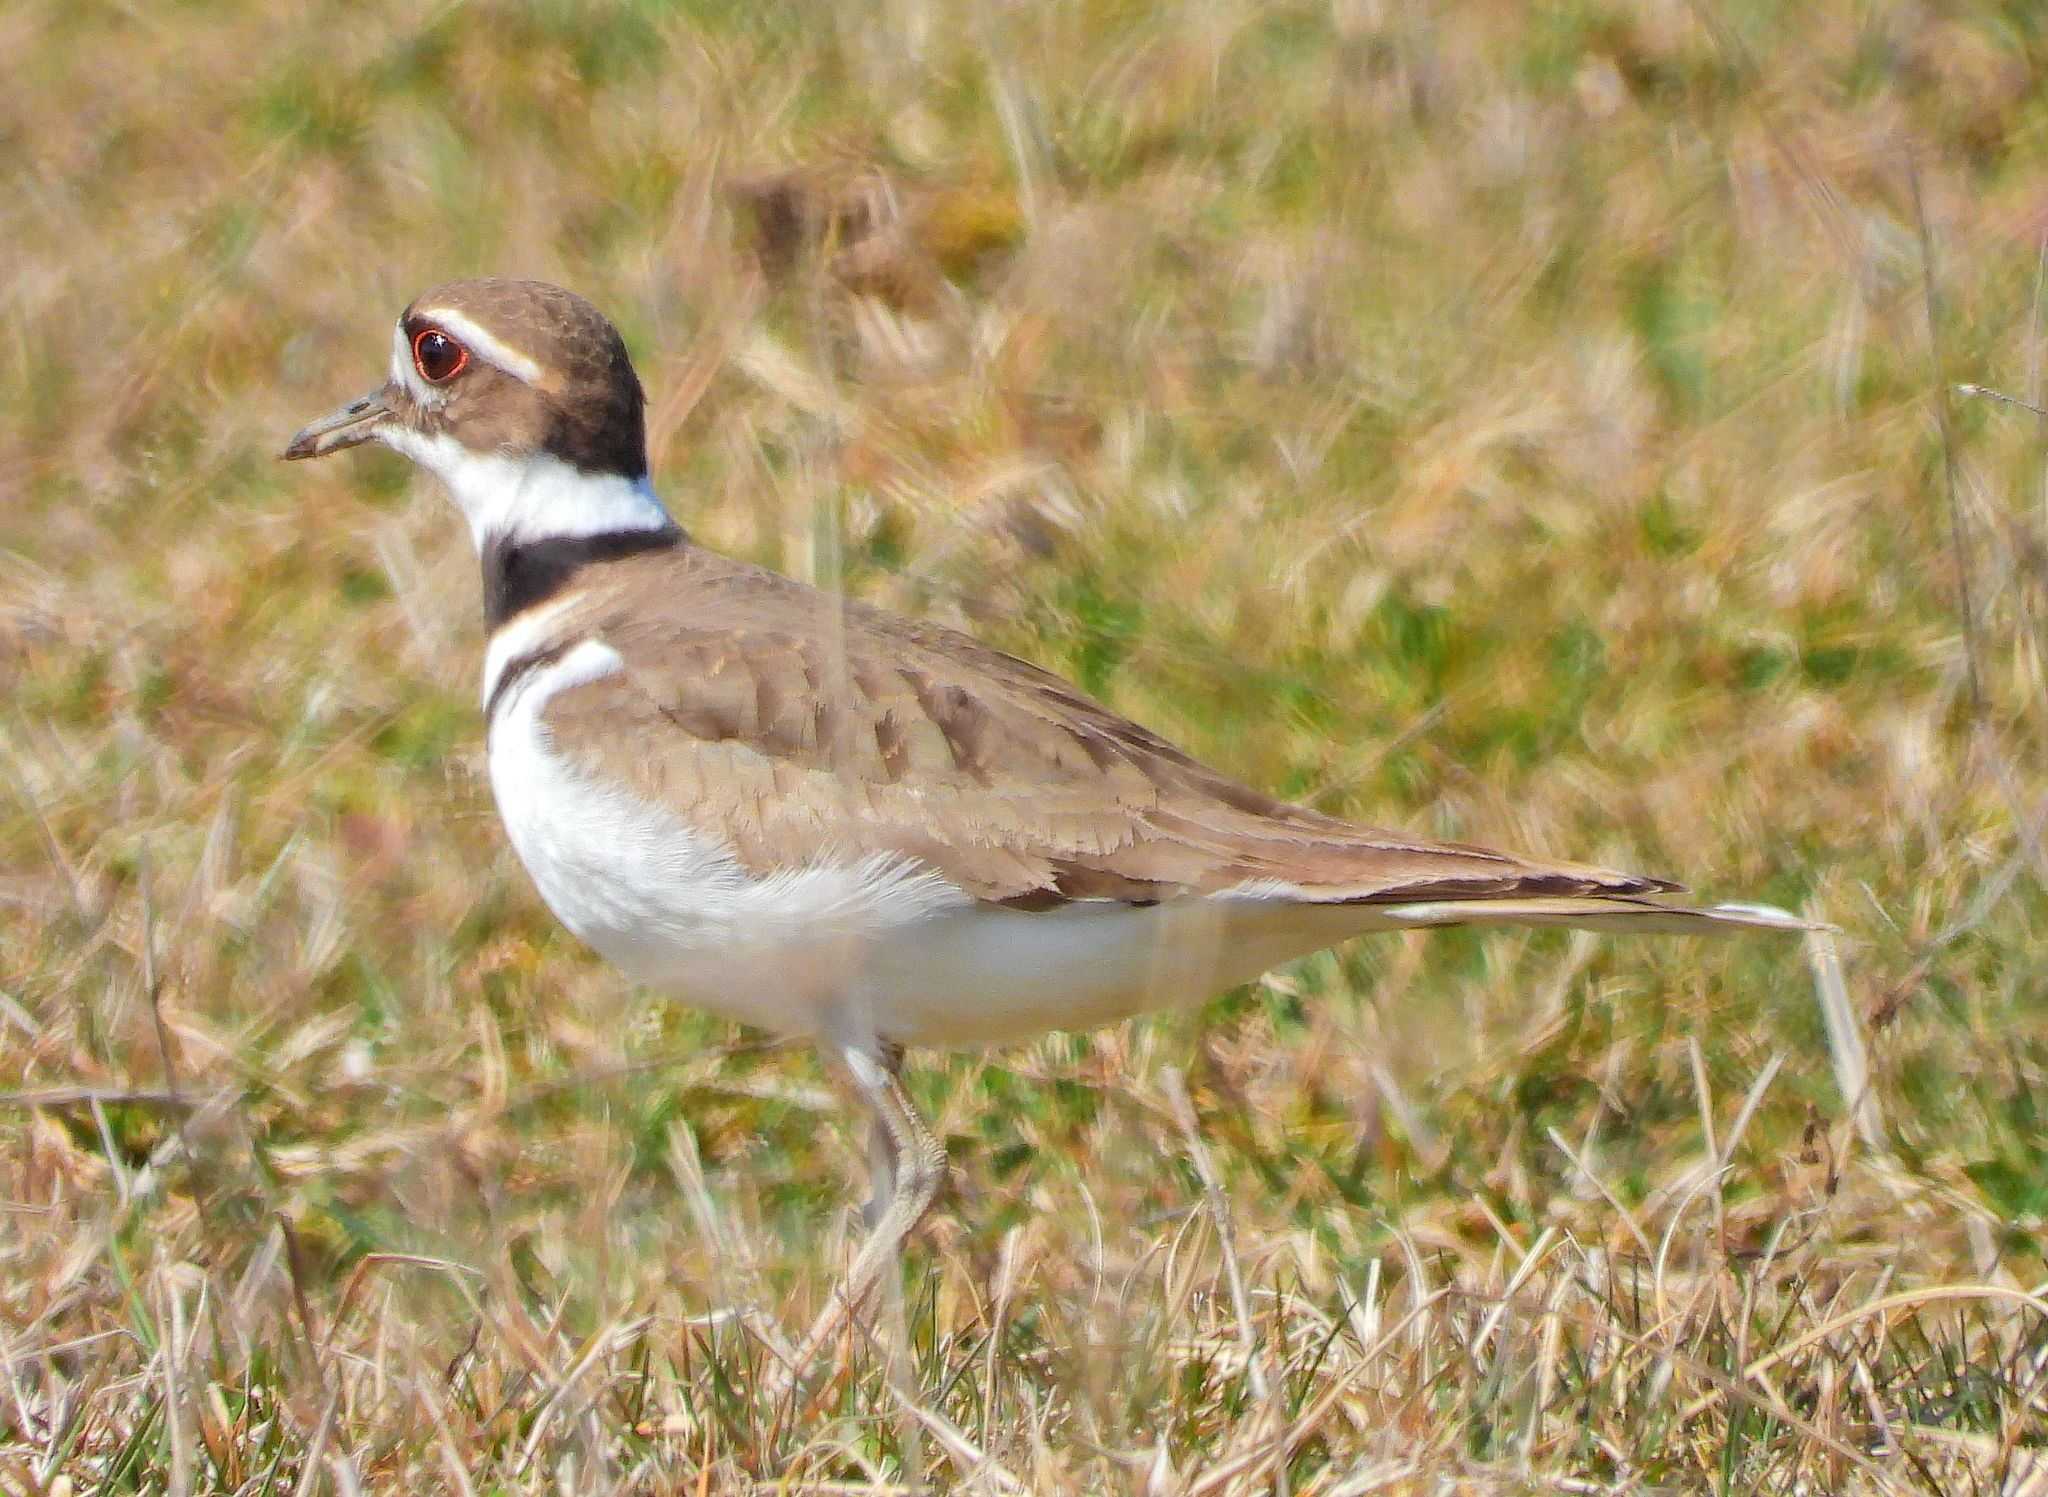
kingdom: Animalia
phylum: Chordata
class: Aves
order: Charadriiformes
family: Charadriidae
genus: Charadrius
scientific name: Charadrius vociferus
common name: Killdeer
